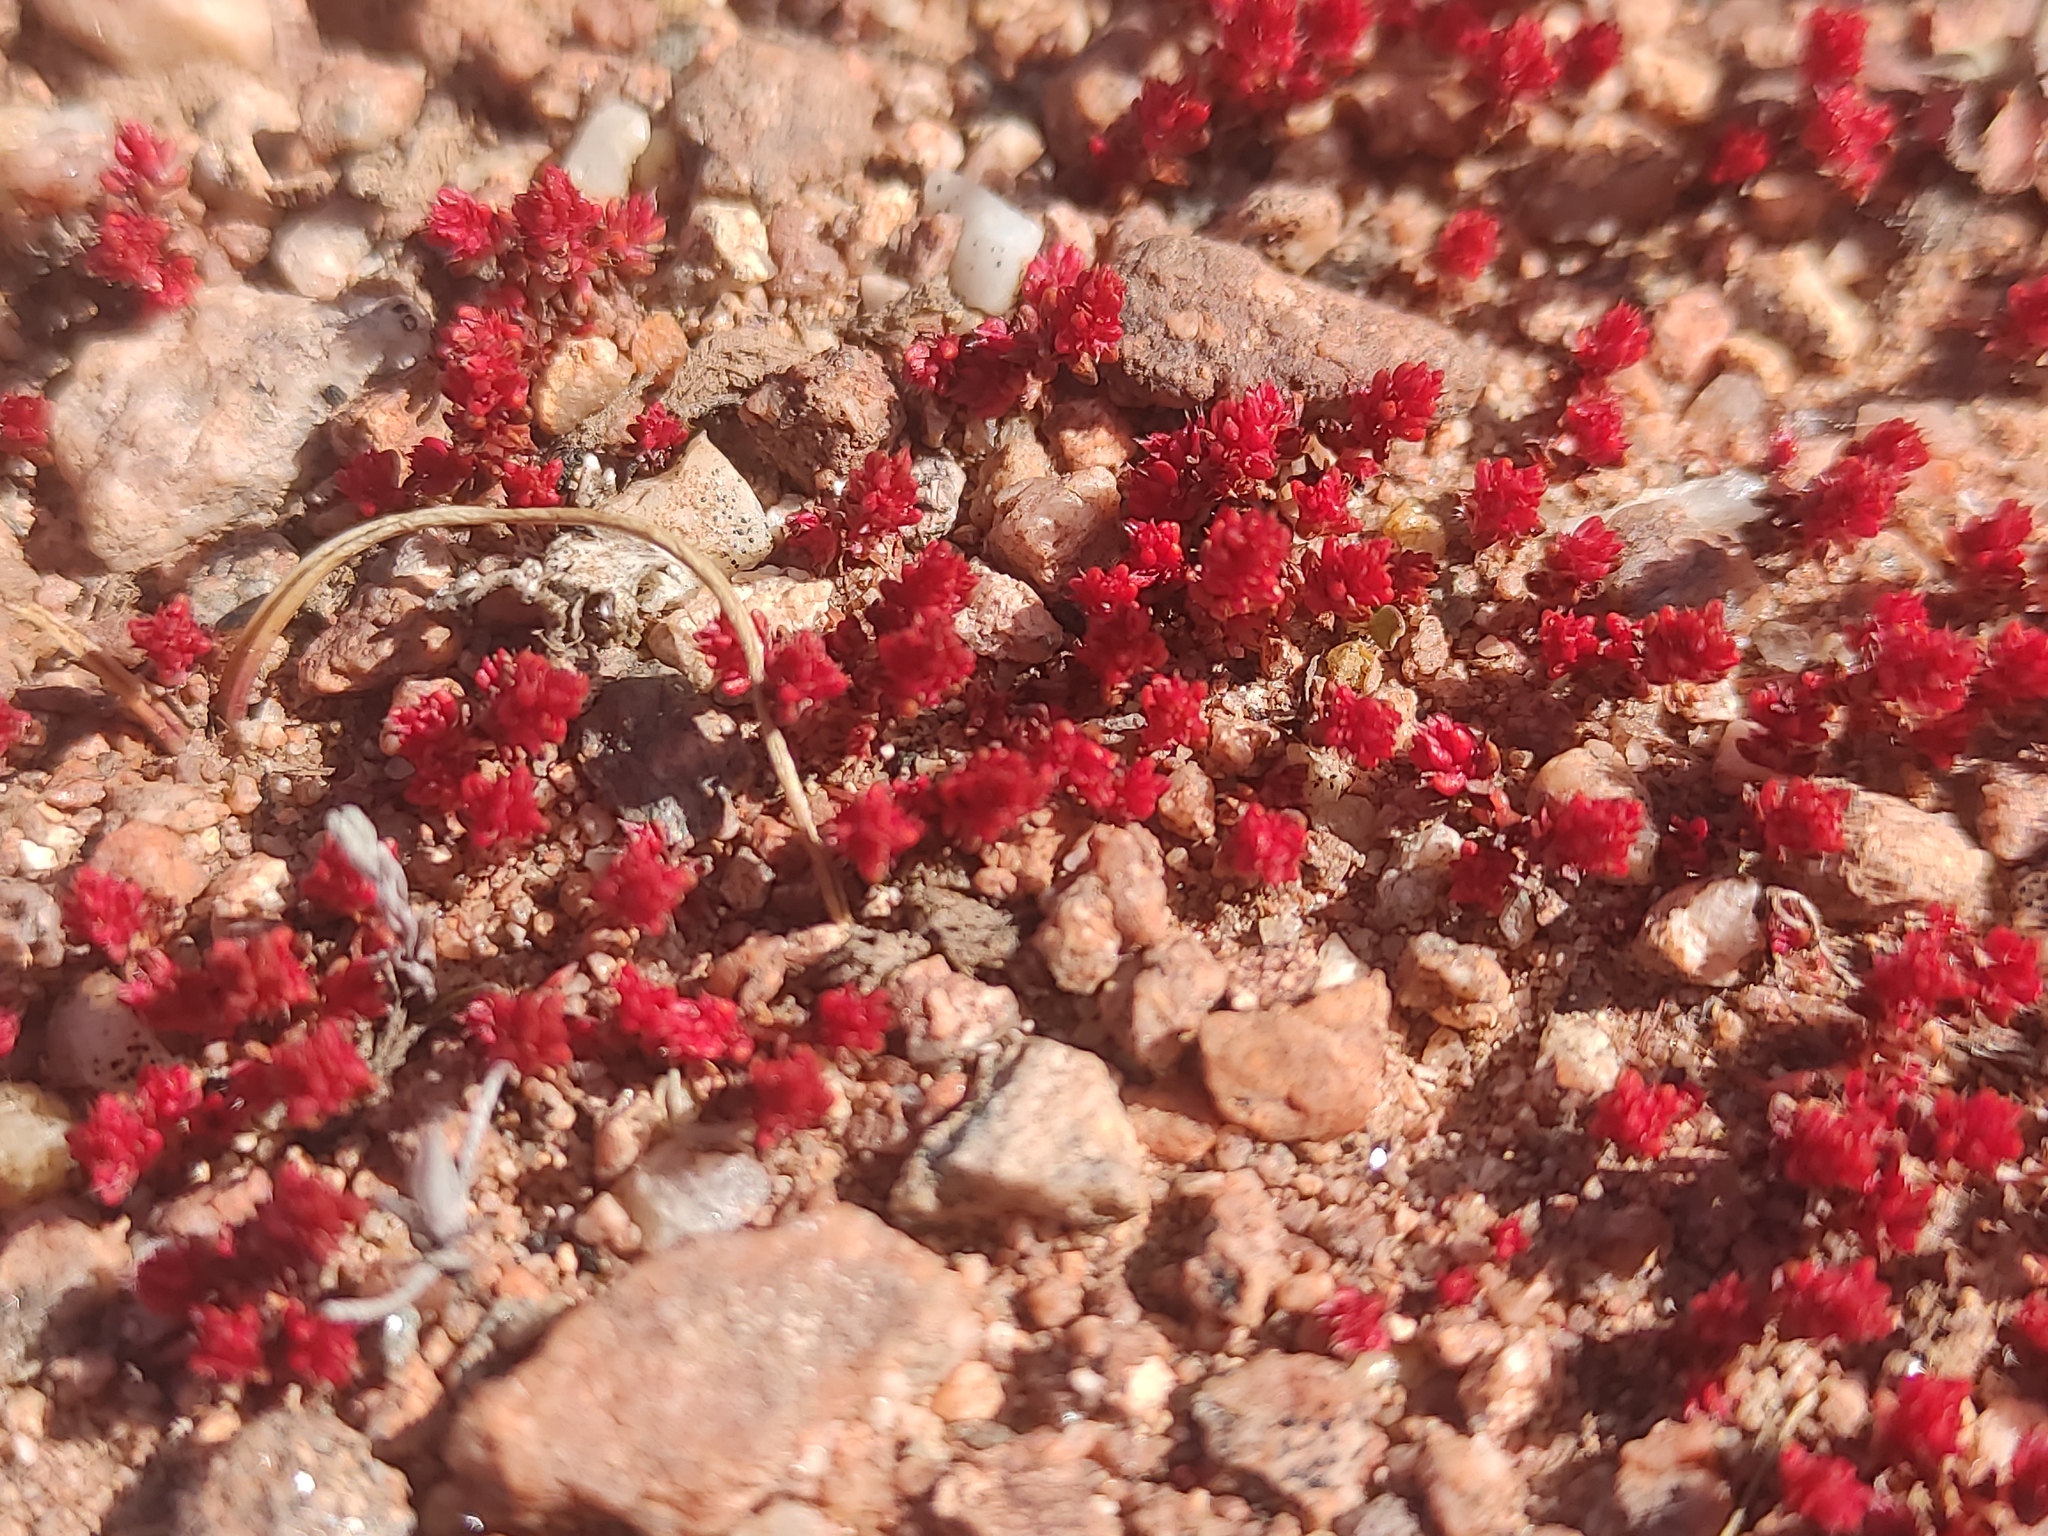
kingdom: Plantae
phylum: Tracheophyta
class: Magnoliopsida
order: Saxifragales
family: Crassulaceae
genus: Crassula
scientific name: Crassula tillaea
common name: Mossy stonecrop
